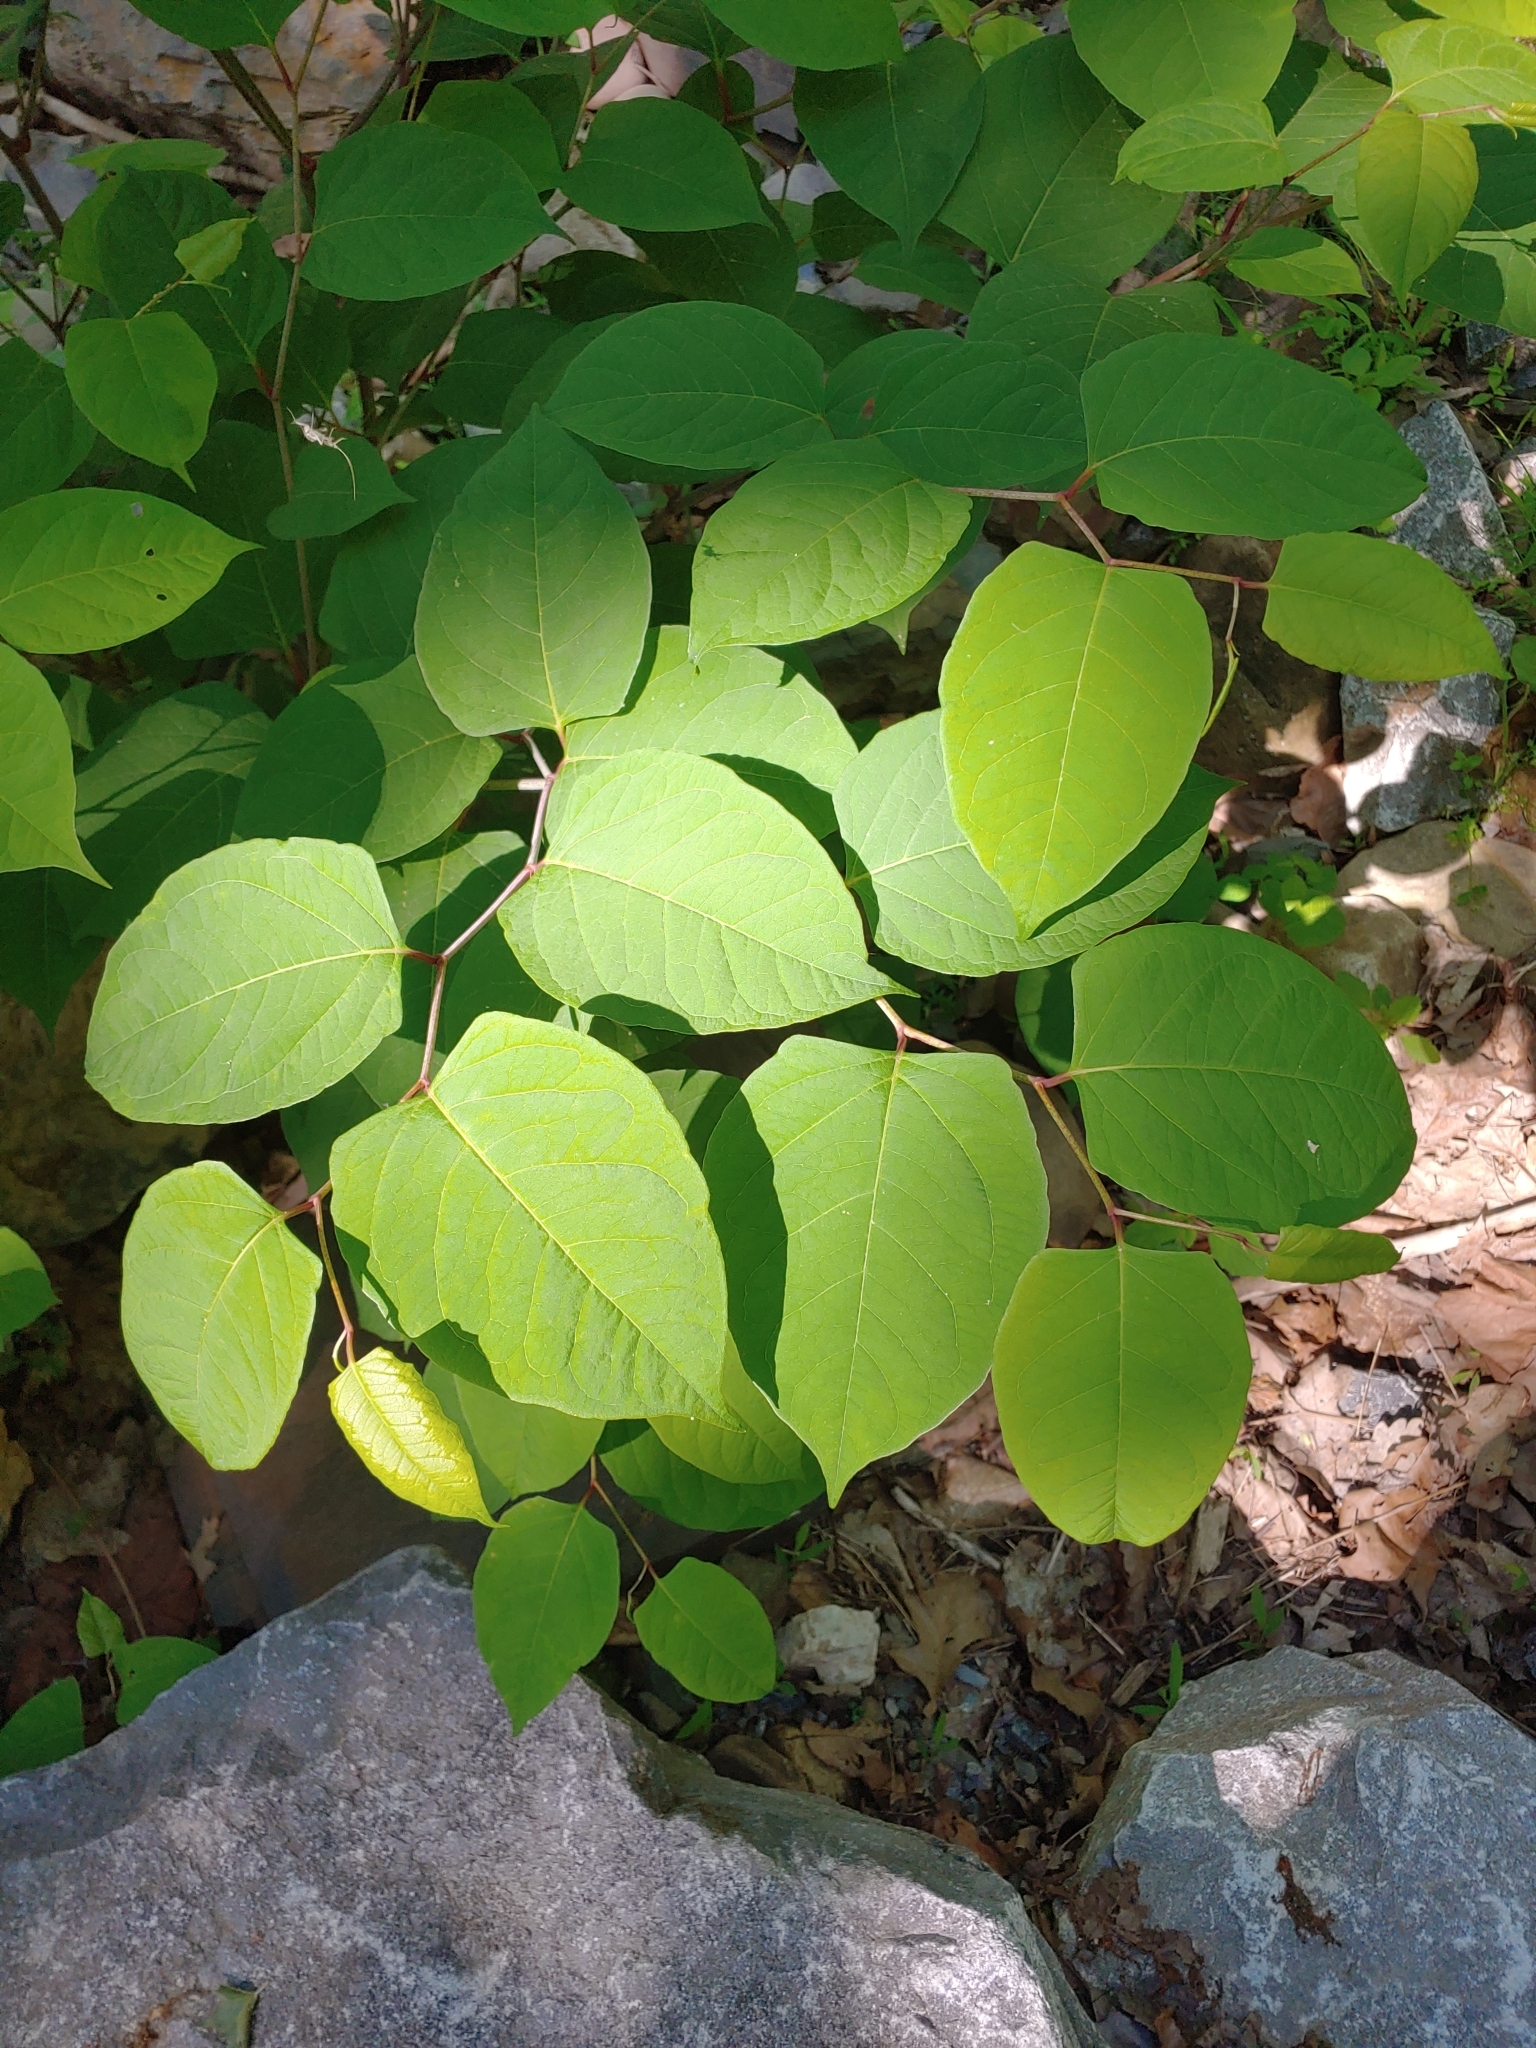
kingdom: Plantae
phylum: Tracheophyta
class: Magnoliopsida
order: Caryophyllales
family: Polygonaceae
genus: Reynoutria
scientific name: Reynoutria japonica
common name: Japanese knotweed
